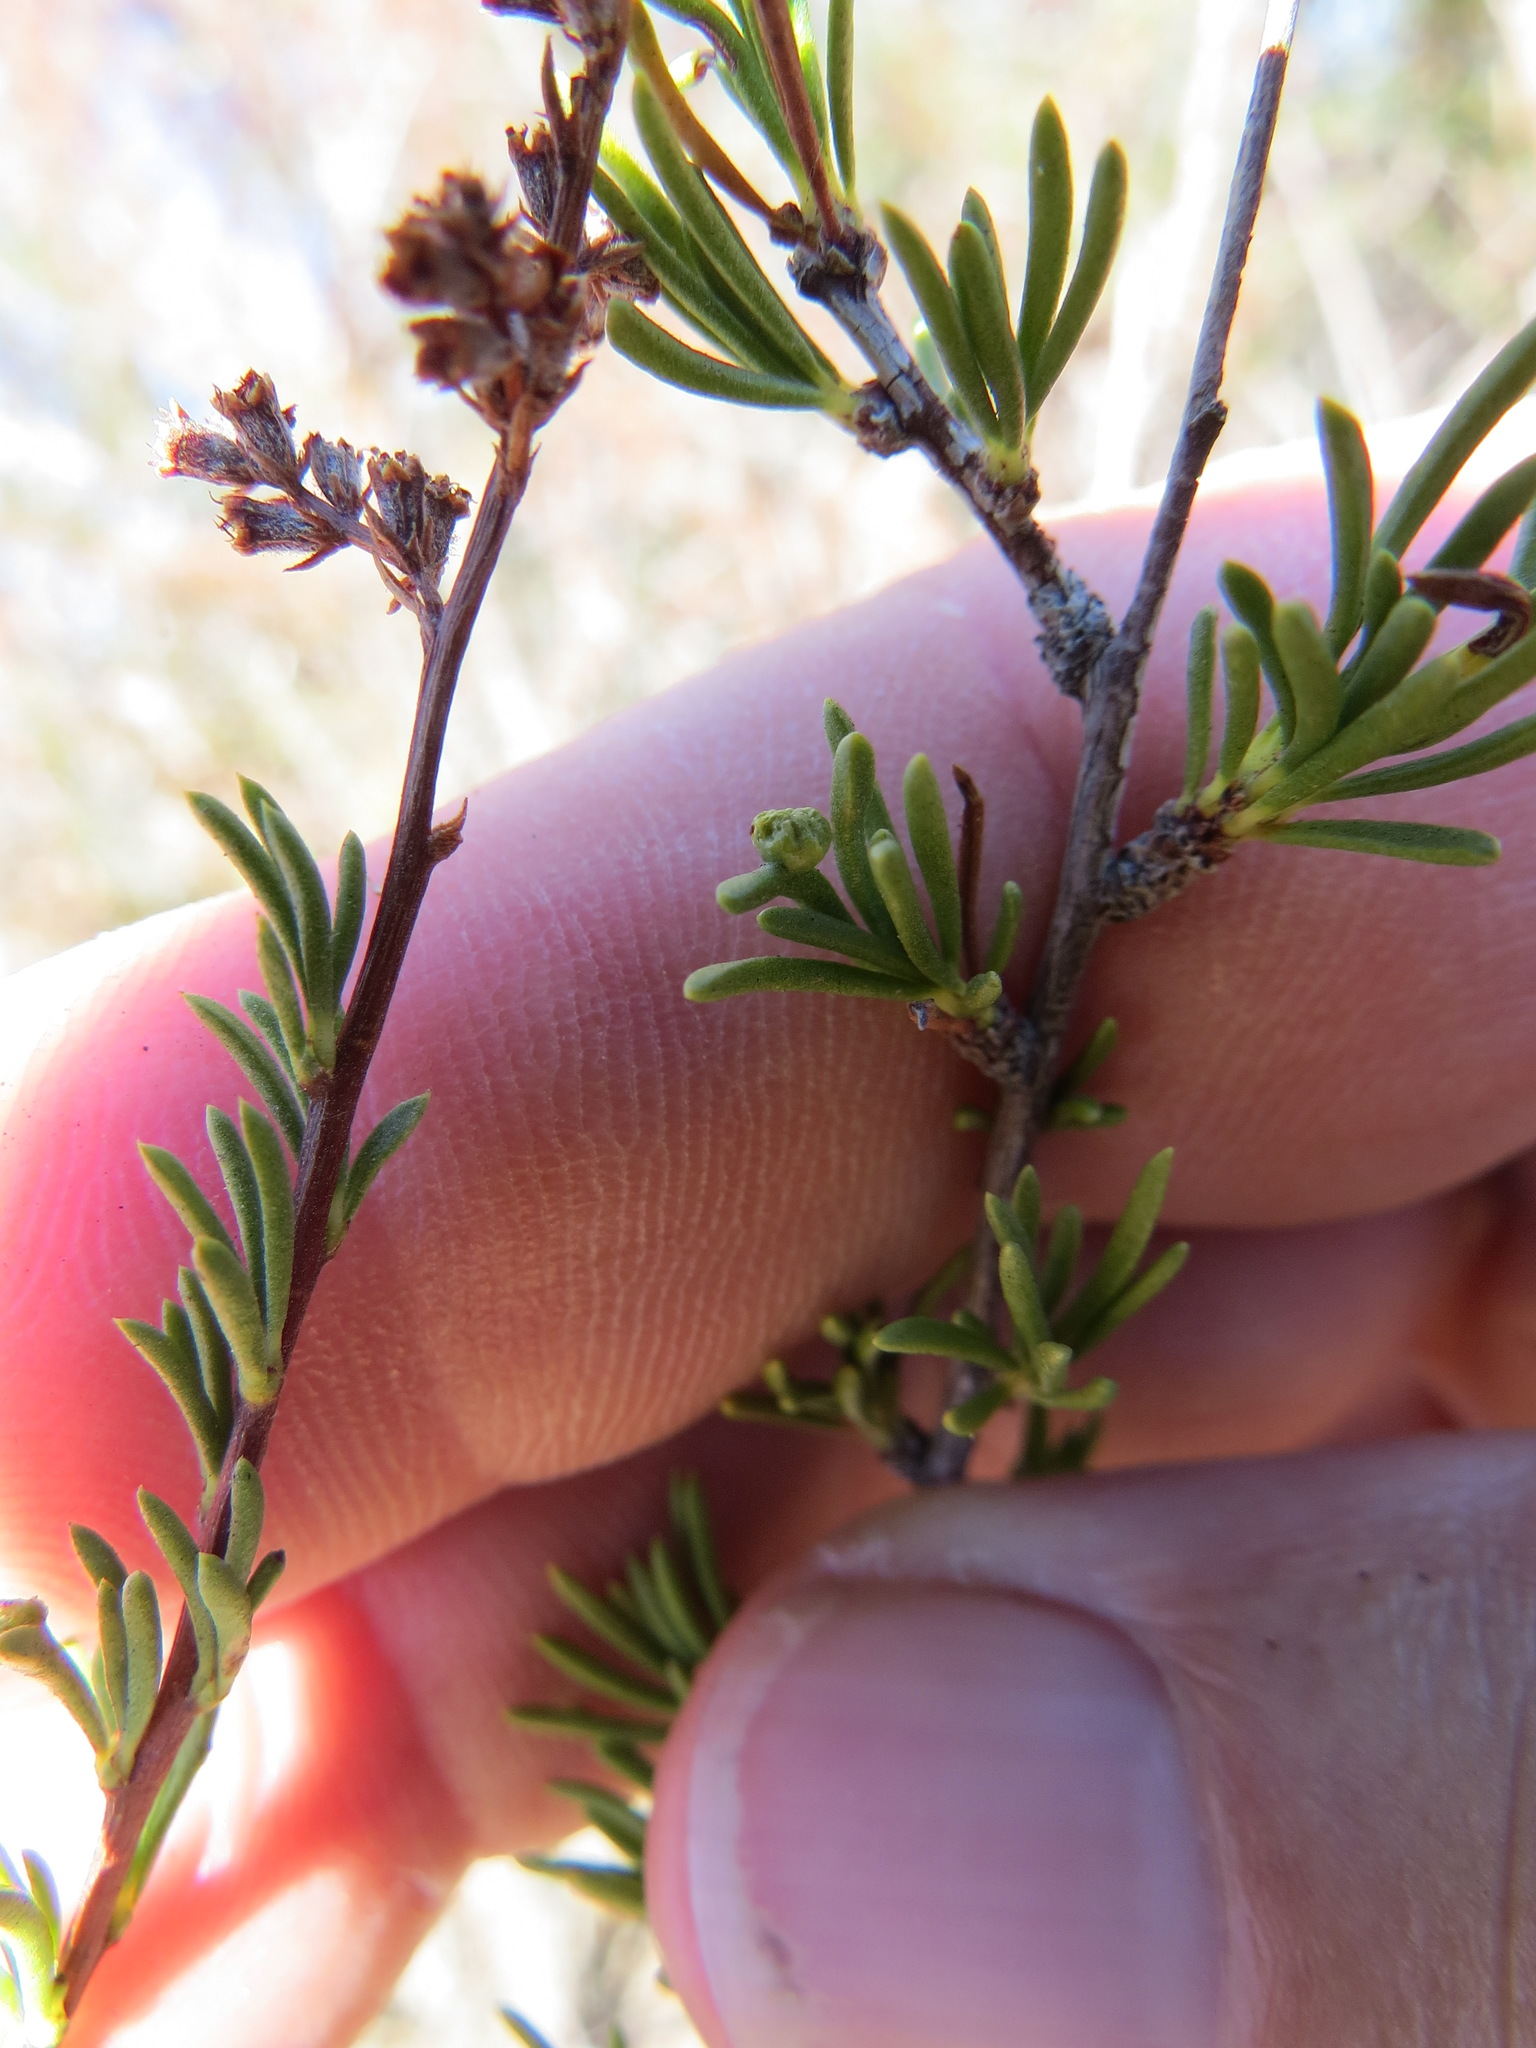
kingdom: Animalia
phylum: Arthropoda
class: Arachnida
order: Trombidiformes
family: Eriophyidae
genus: Eriophyes
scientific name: Eriophyes
